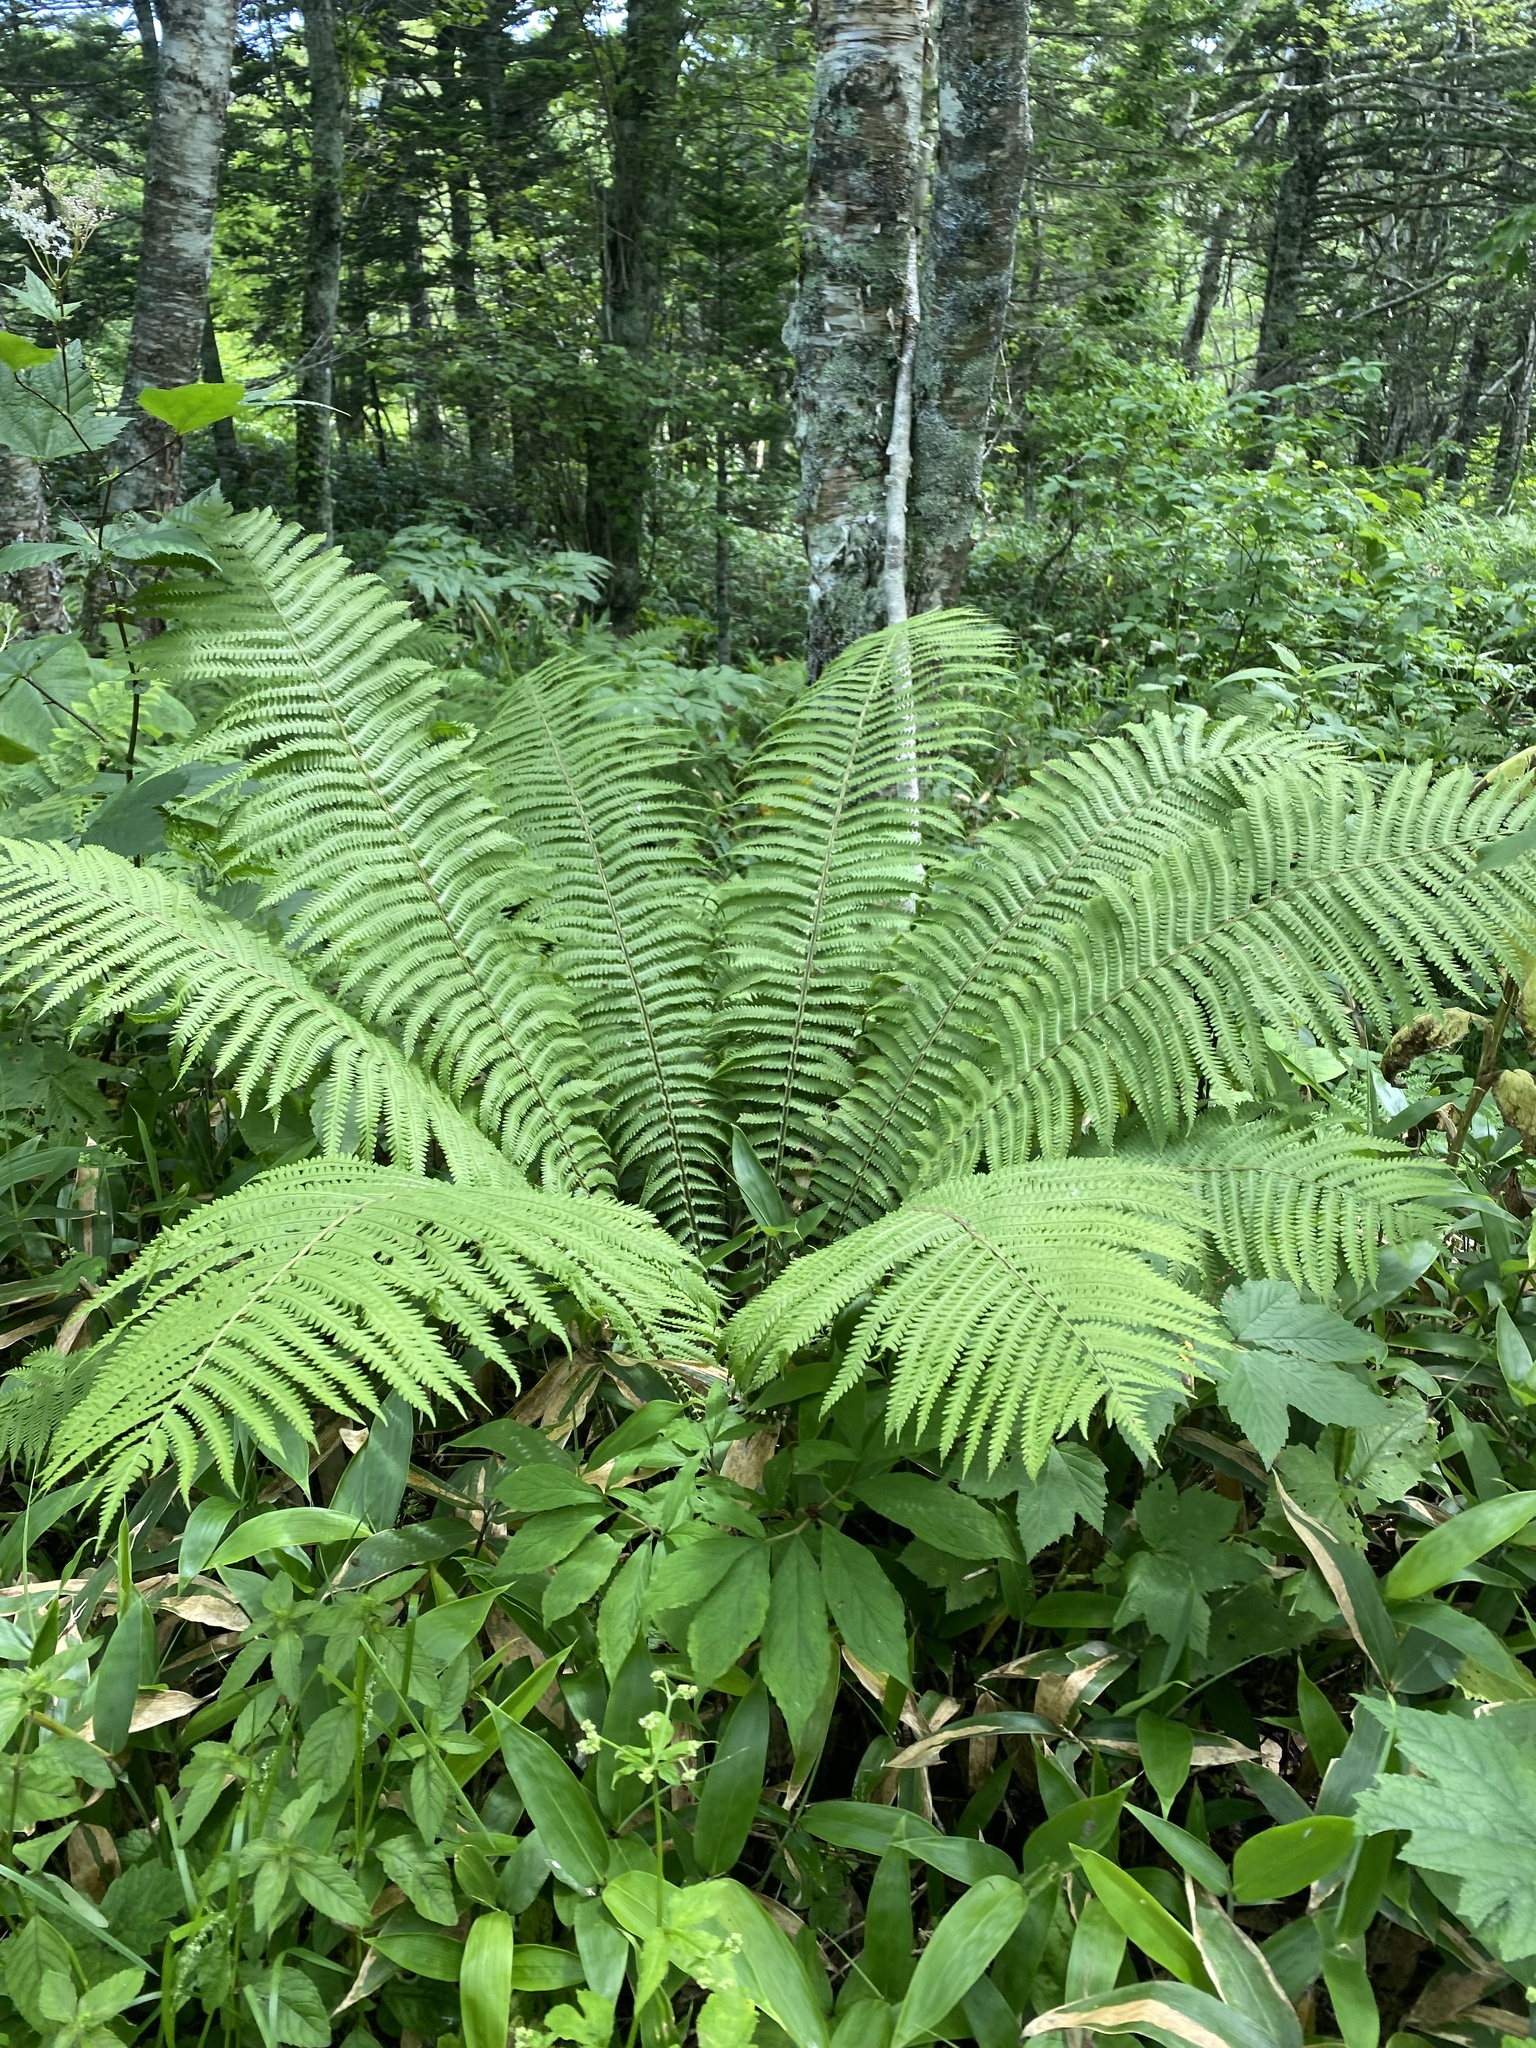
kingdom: Plantae
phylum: Tracheophyta
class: Polypodiopsida
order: Polypodiales
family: Onocleaceae
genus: Matteuccia
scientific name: Matteuccia struthiopteris
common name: Ostrich fern
